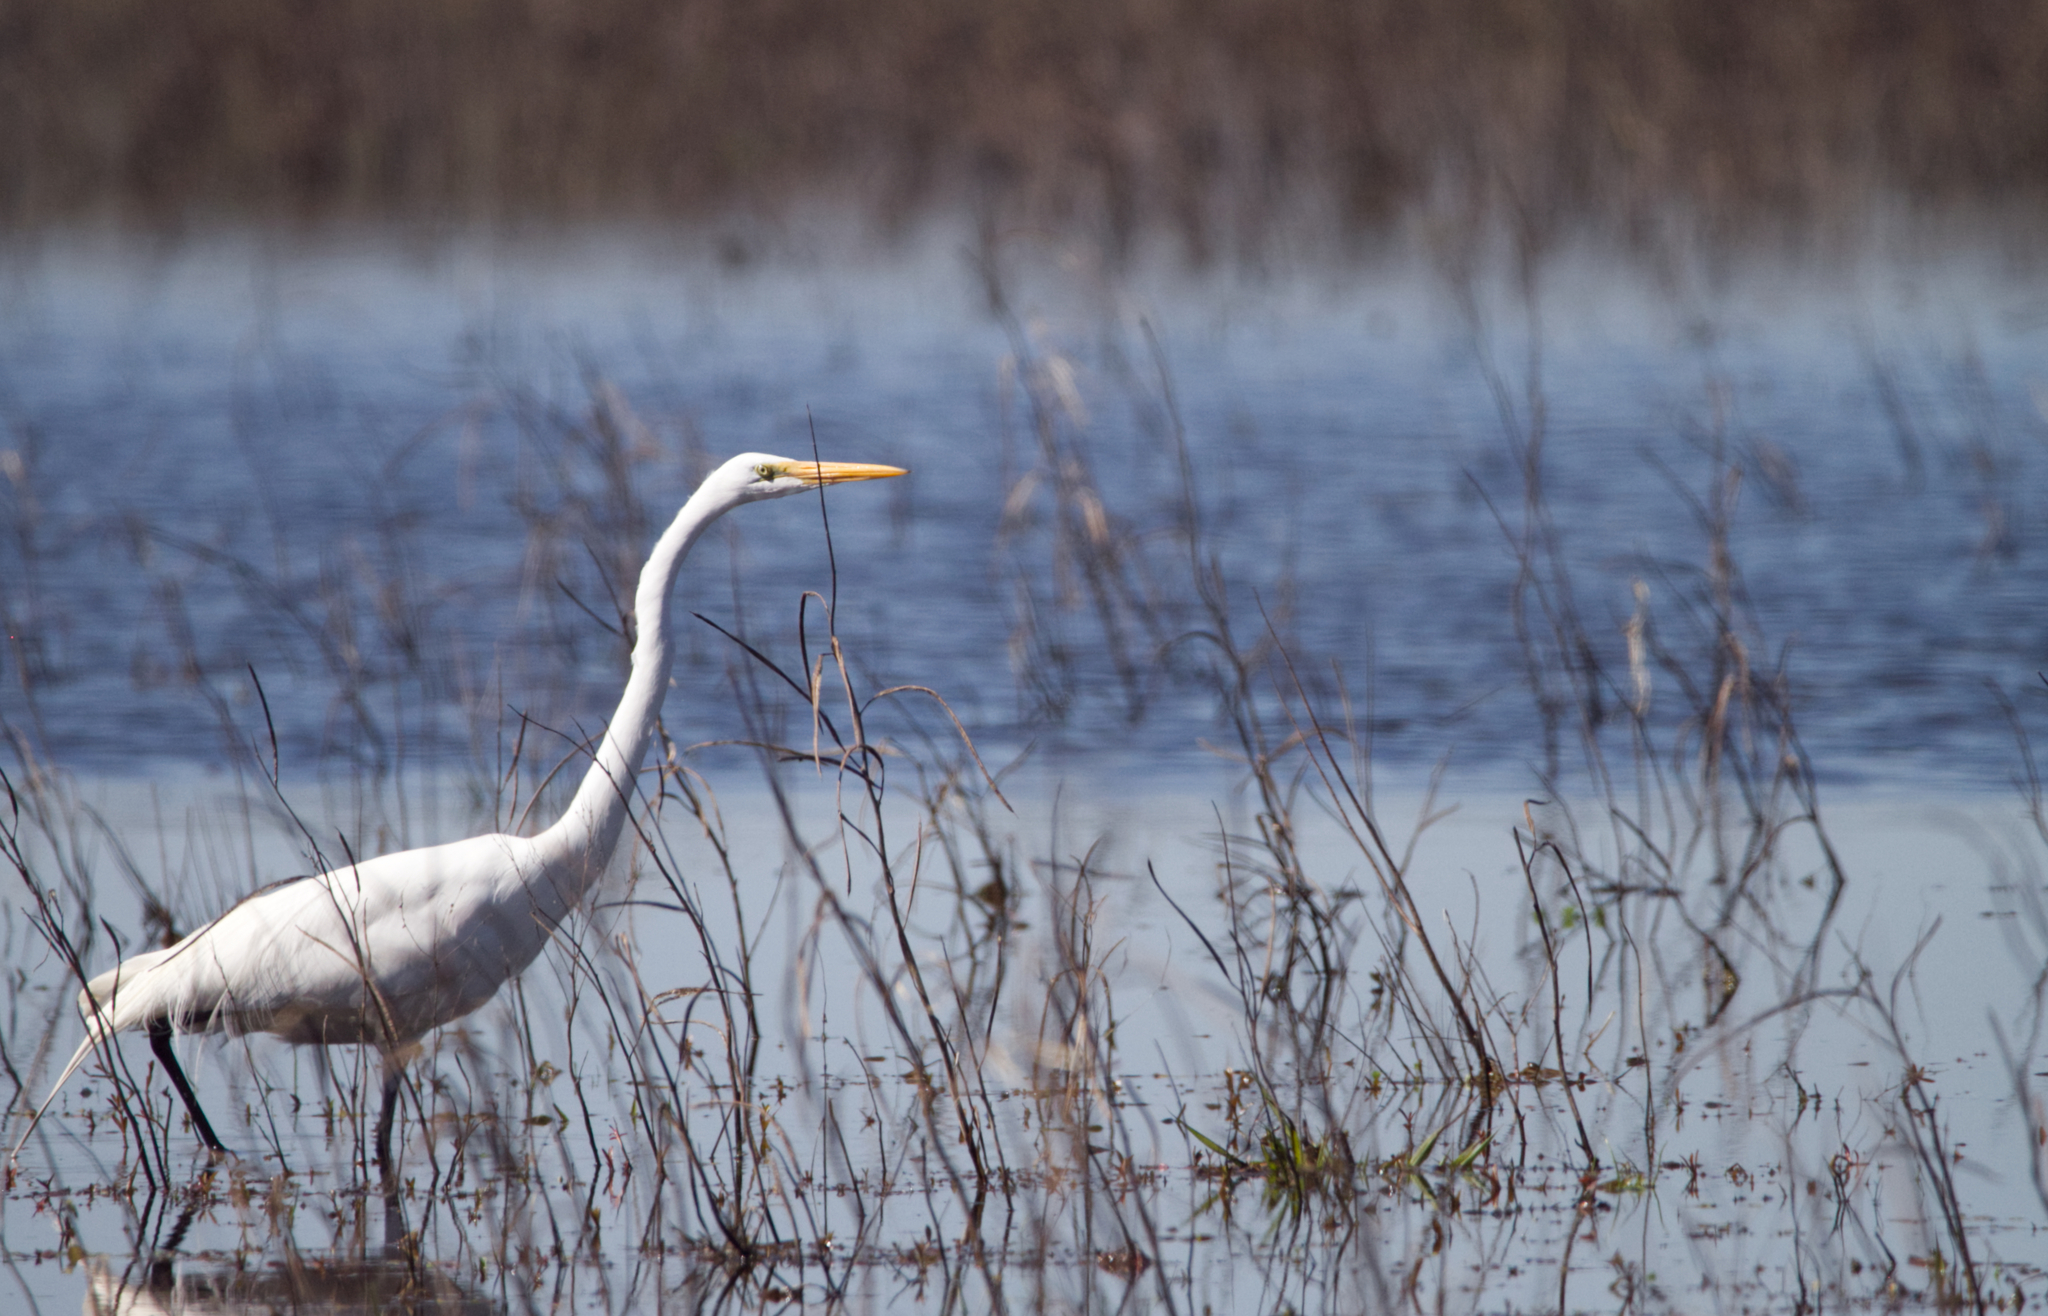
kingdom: Animalia
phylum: Chordata
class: Aves
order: Pelecaniformes
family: Ardeidae
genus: Ardea
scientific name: Ardea alba
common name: Great egret
